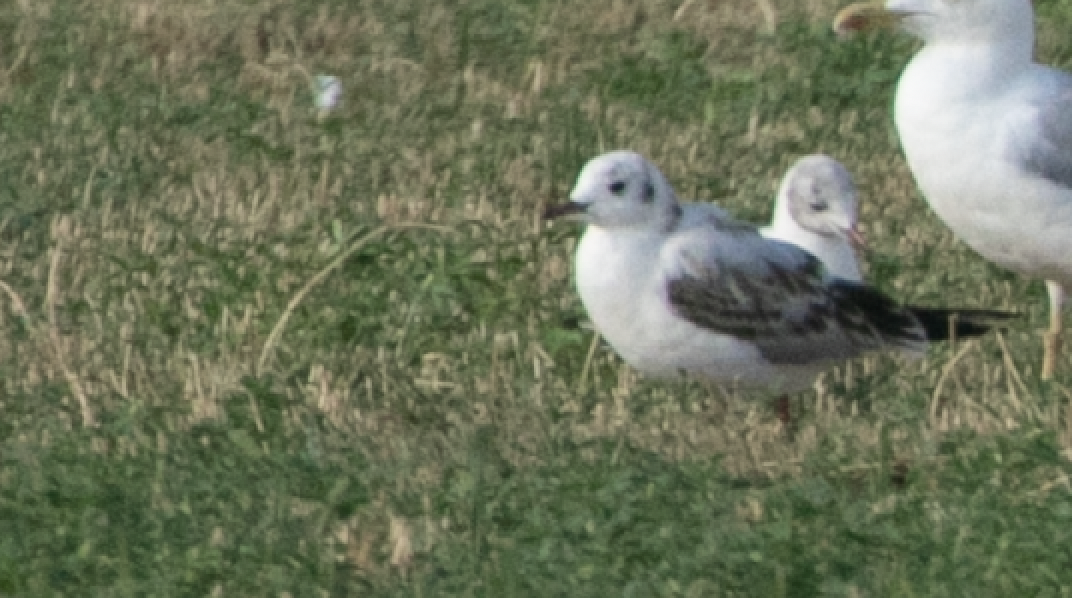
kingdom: Animalia
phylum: Chordata
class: Aves
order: Charadriiformes
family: Laridae
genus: Chroicocephalus
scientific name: Chroicocephalus ridibundus
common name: Black-headed gull
